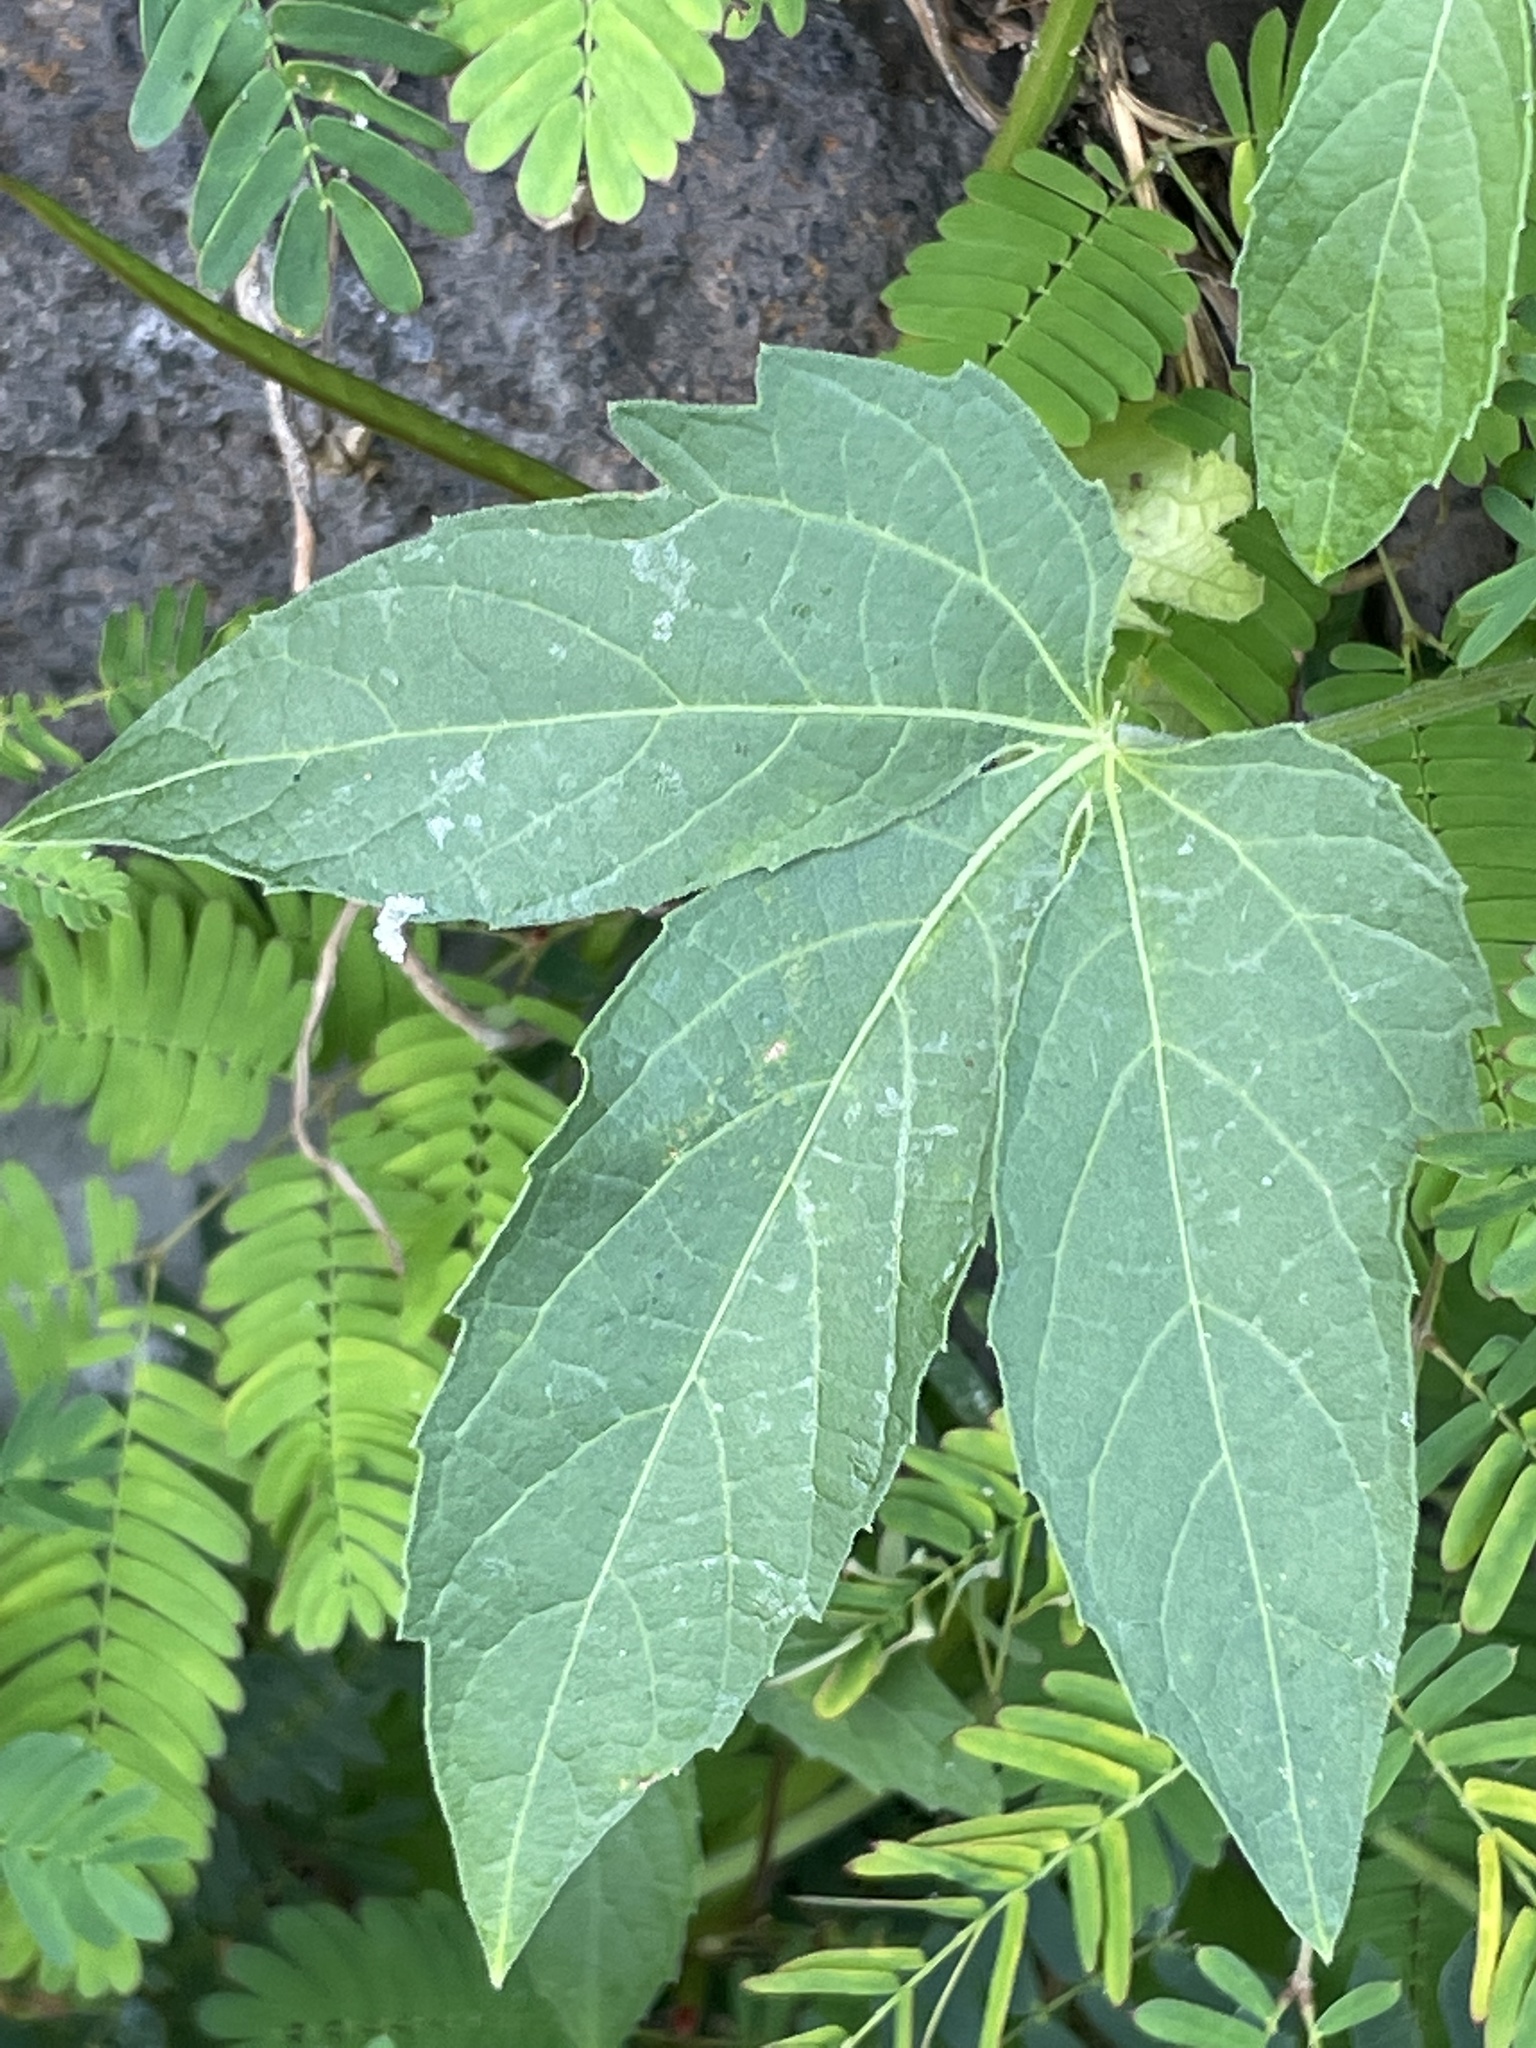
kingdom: Plantae
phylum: Tracheophyta
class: Magnoliopsida
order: Malpighiales
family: Euphorbiaceae
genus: Dalechampia
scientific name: Dalechampia scandens
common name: Spurgecreeper
